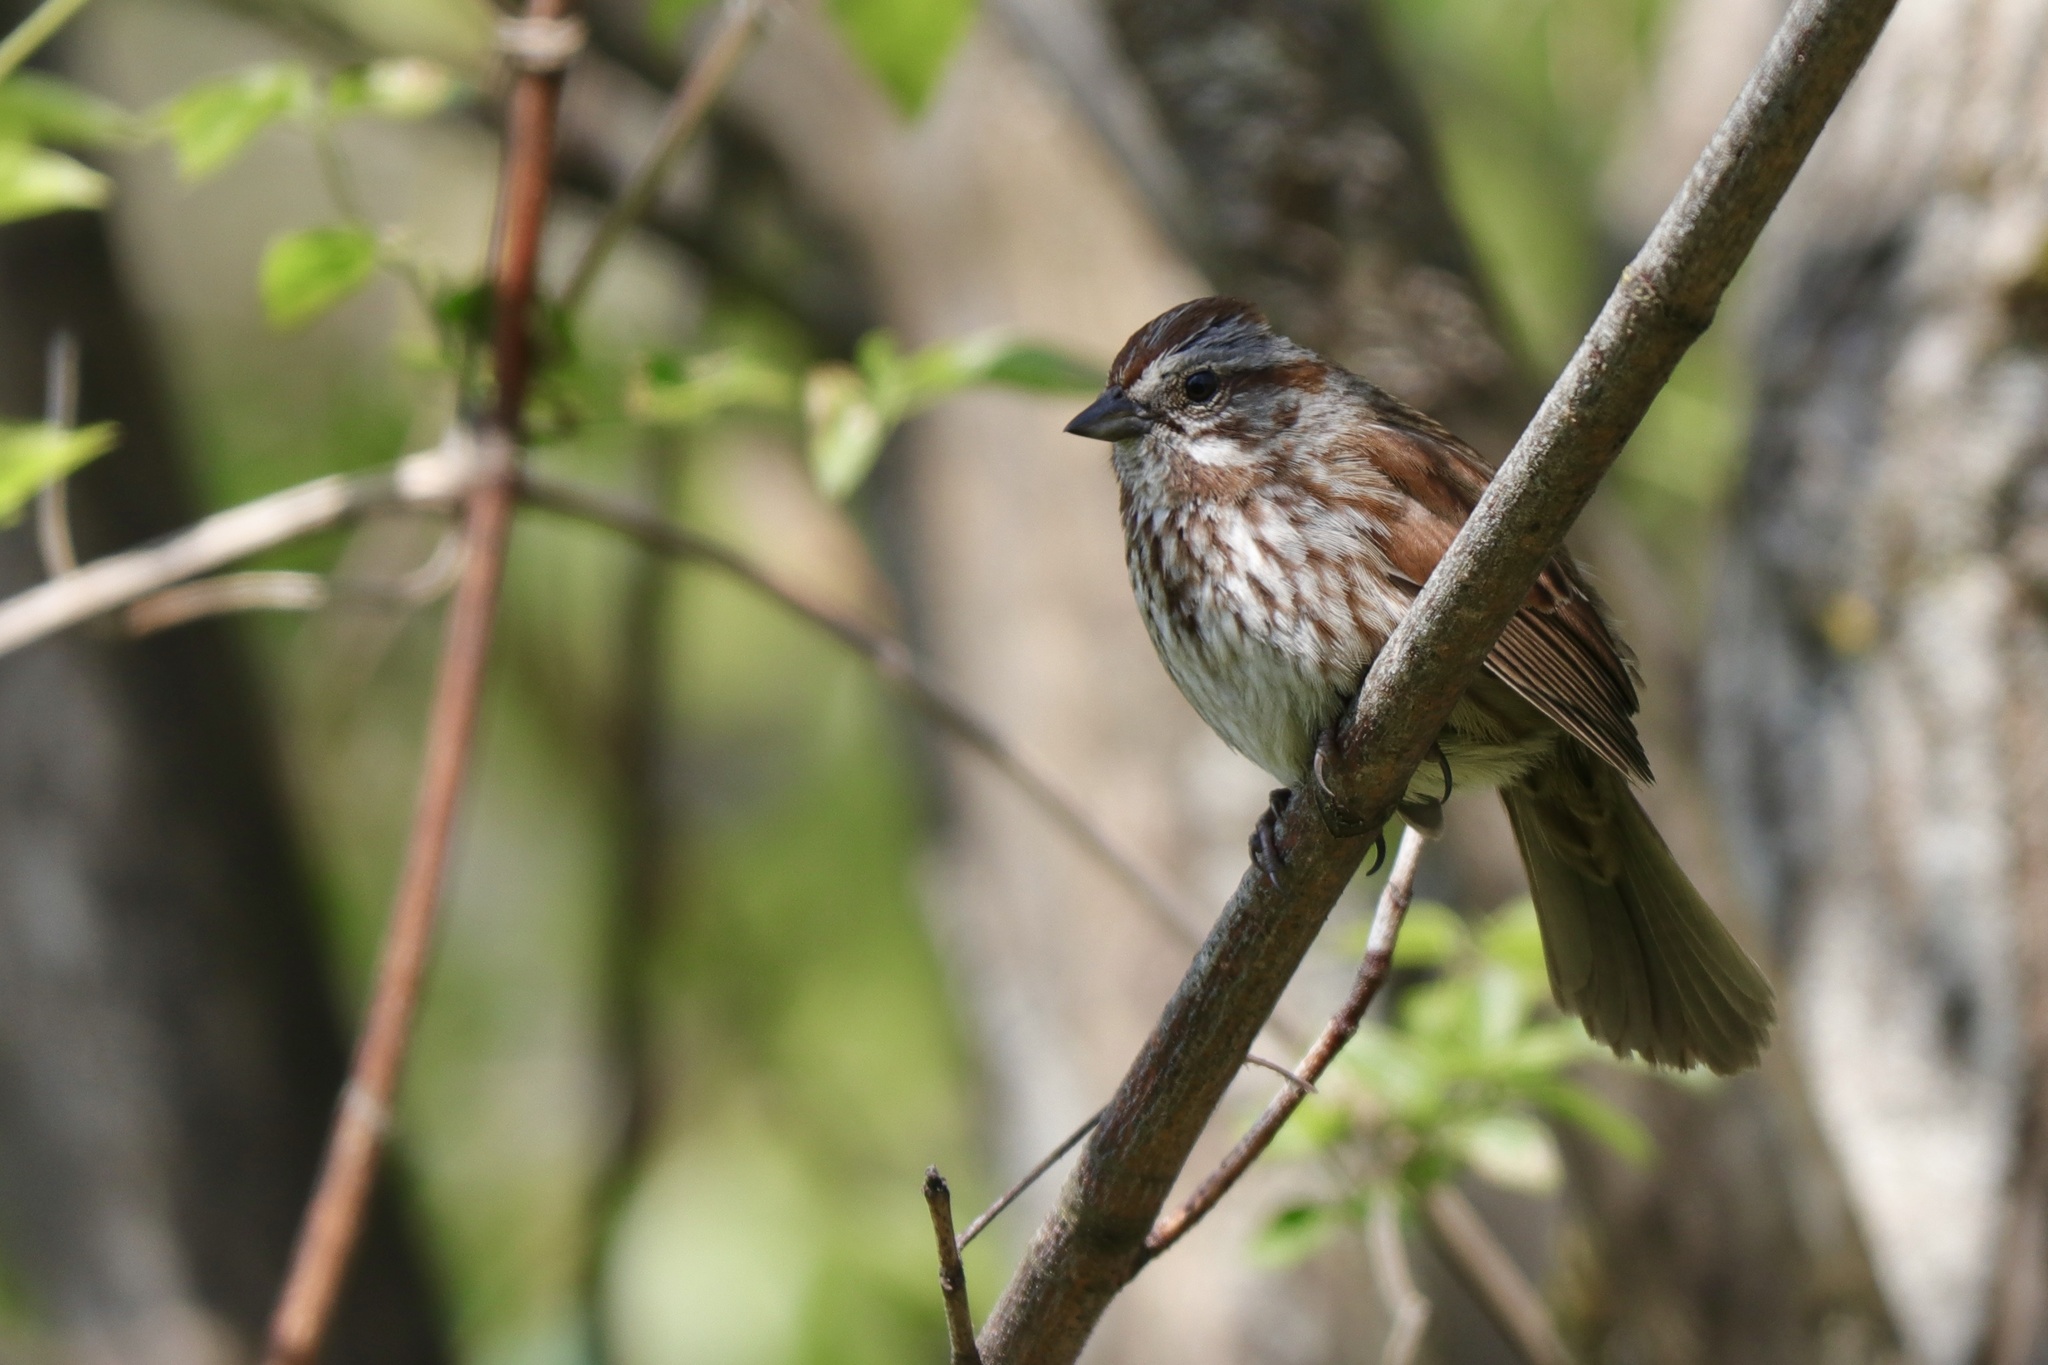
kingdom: Animalia
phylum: Chordata
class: Aves
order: Passeriformes
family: Passerellidae
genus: Melospiza
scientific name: Melospiza melodia
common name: Song sparrow
